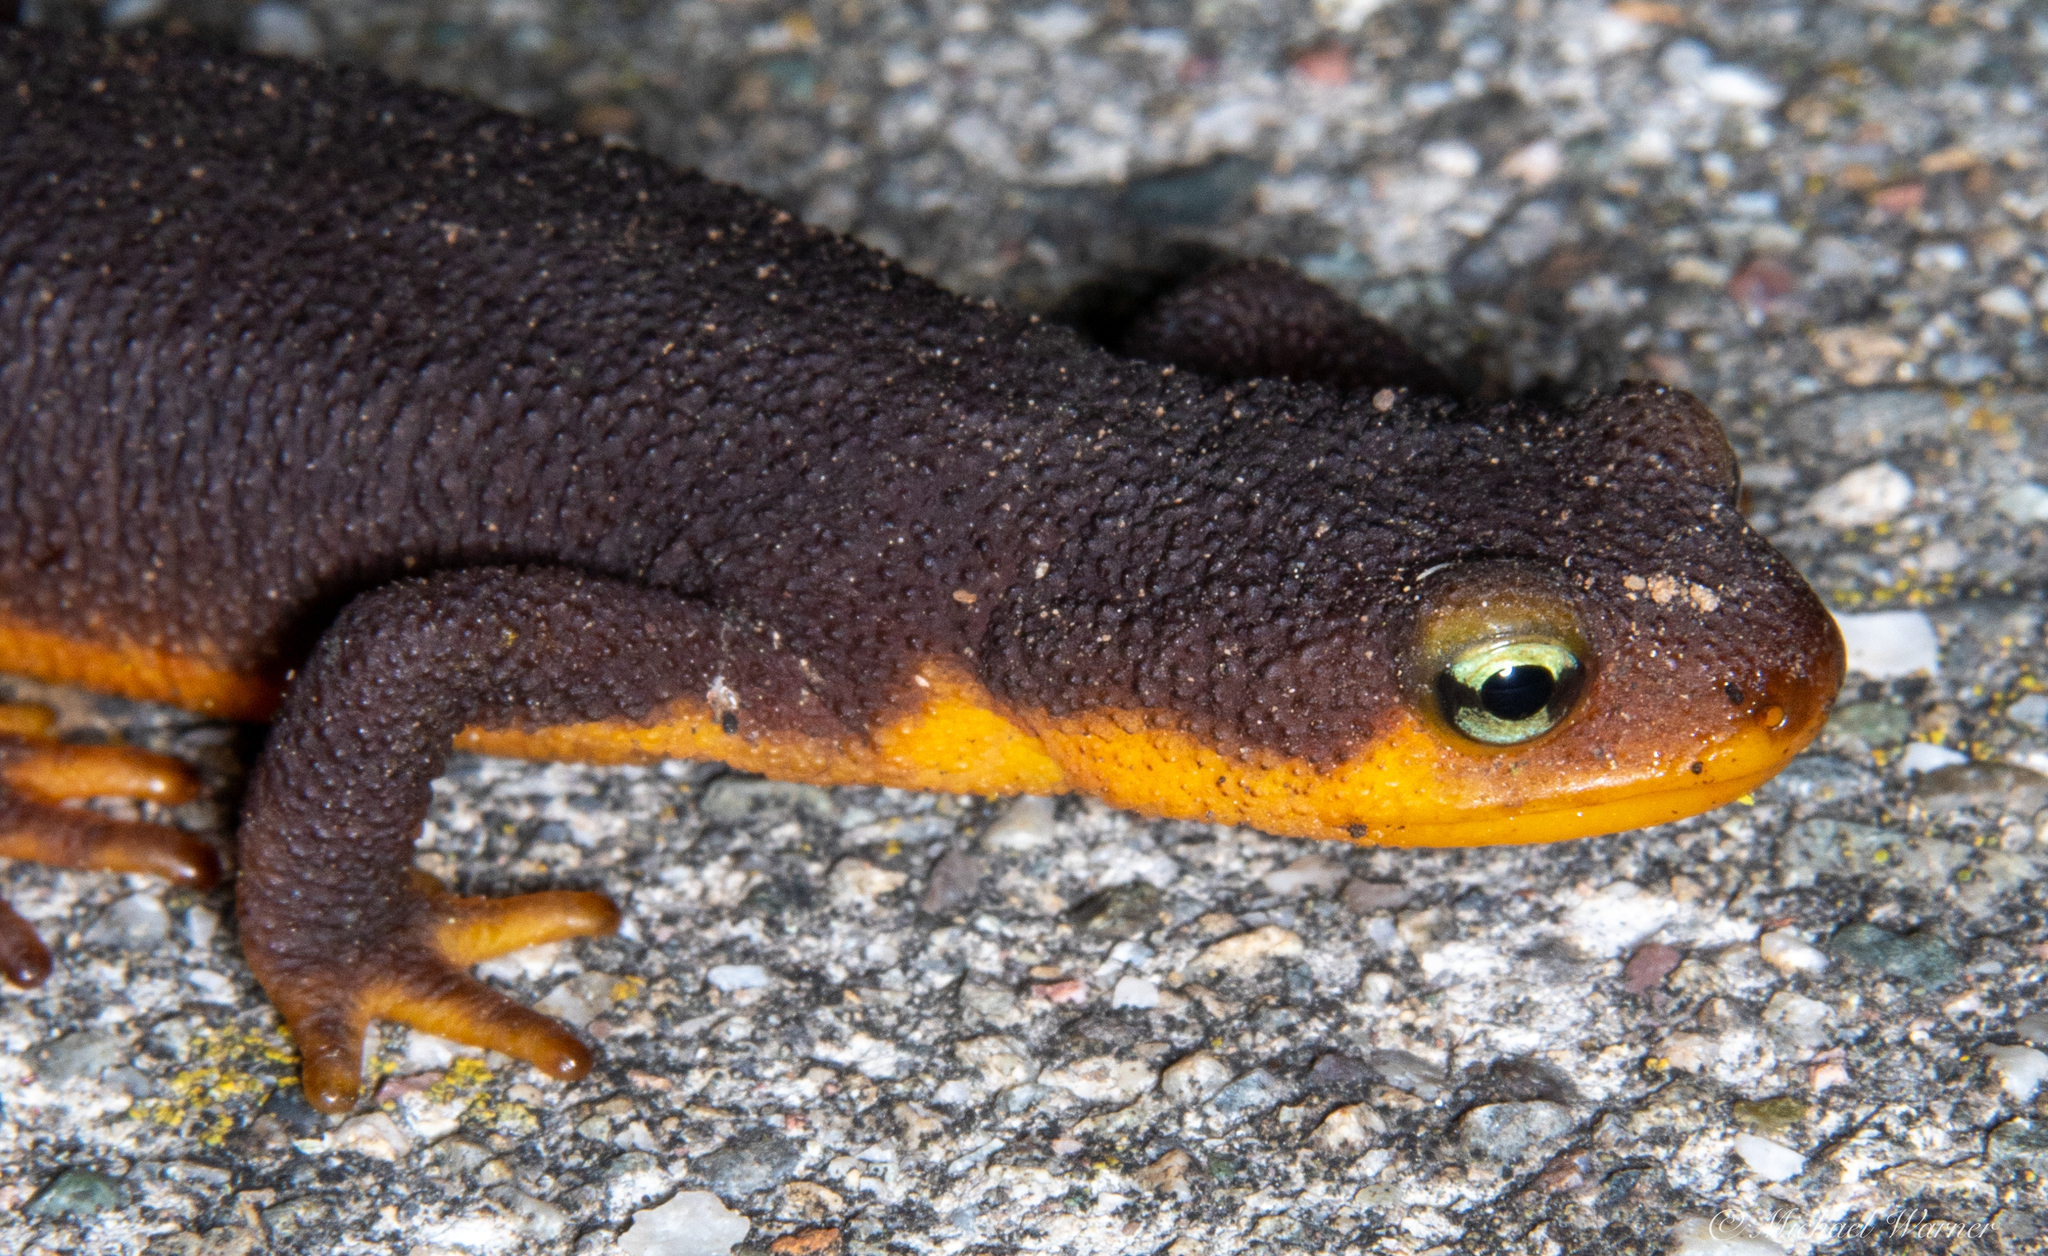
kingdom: Animalia
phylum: Chordata
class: Amphibia
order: Caudata
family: Salamandridae
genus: Taricha
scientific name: Taricha torosa
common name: California newt
